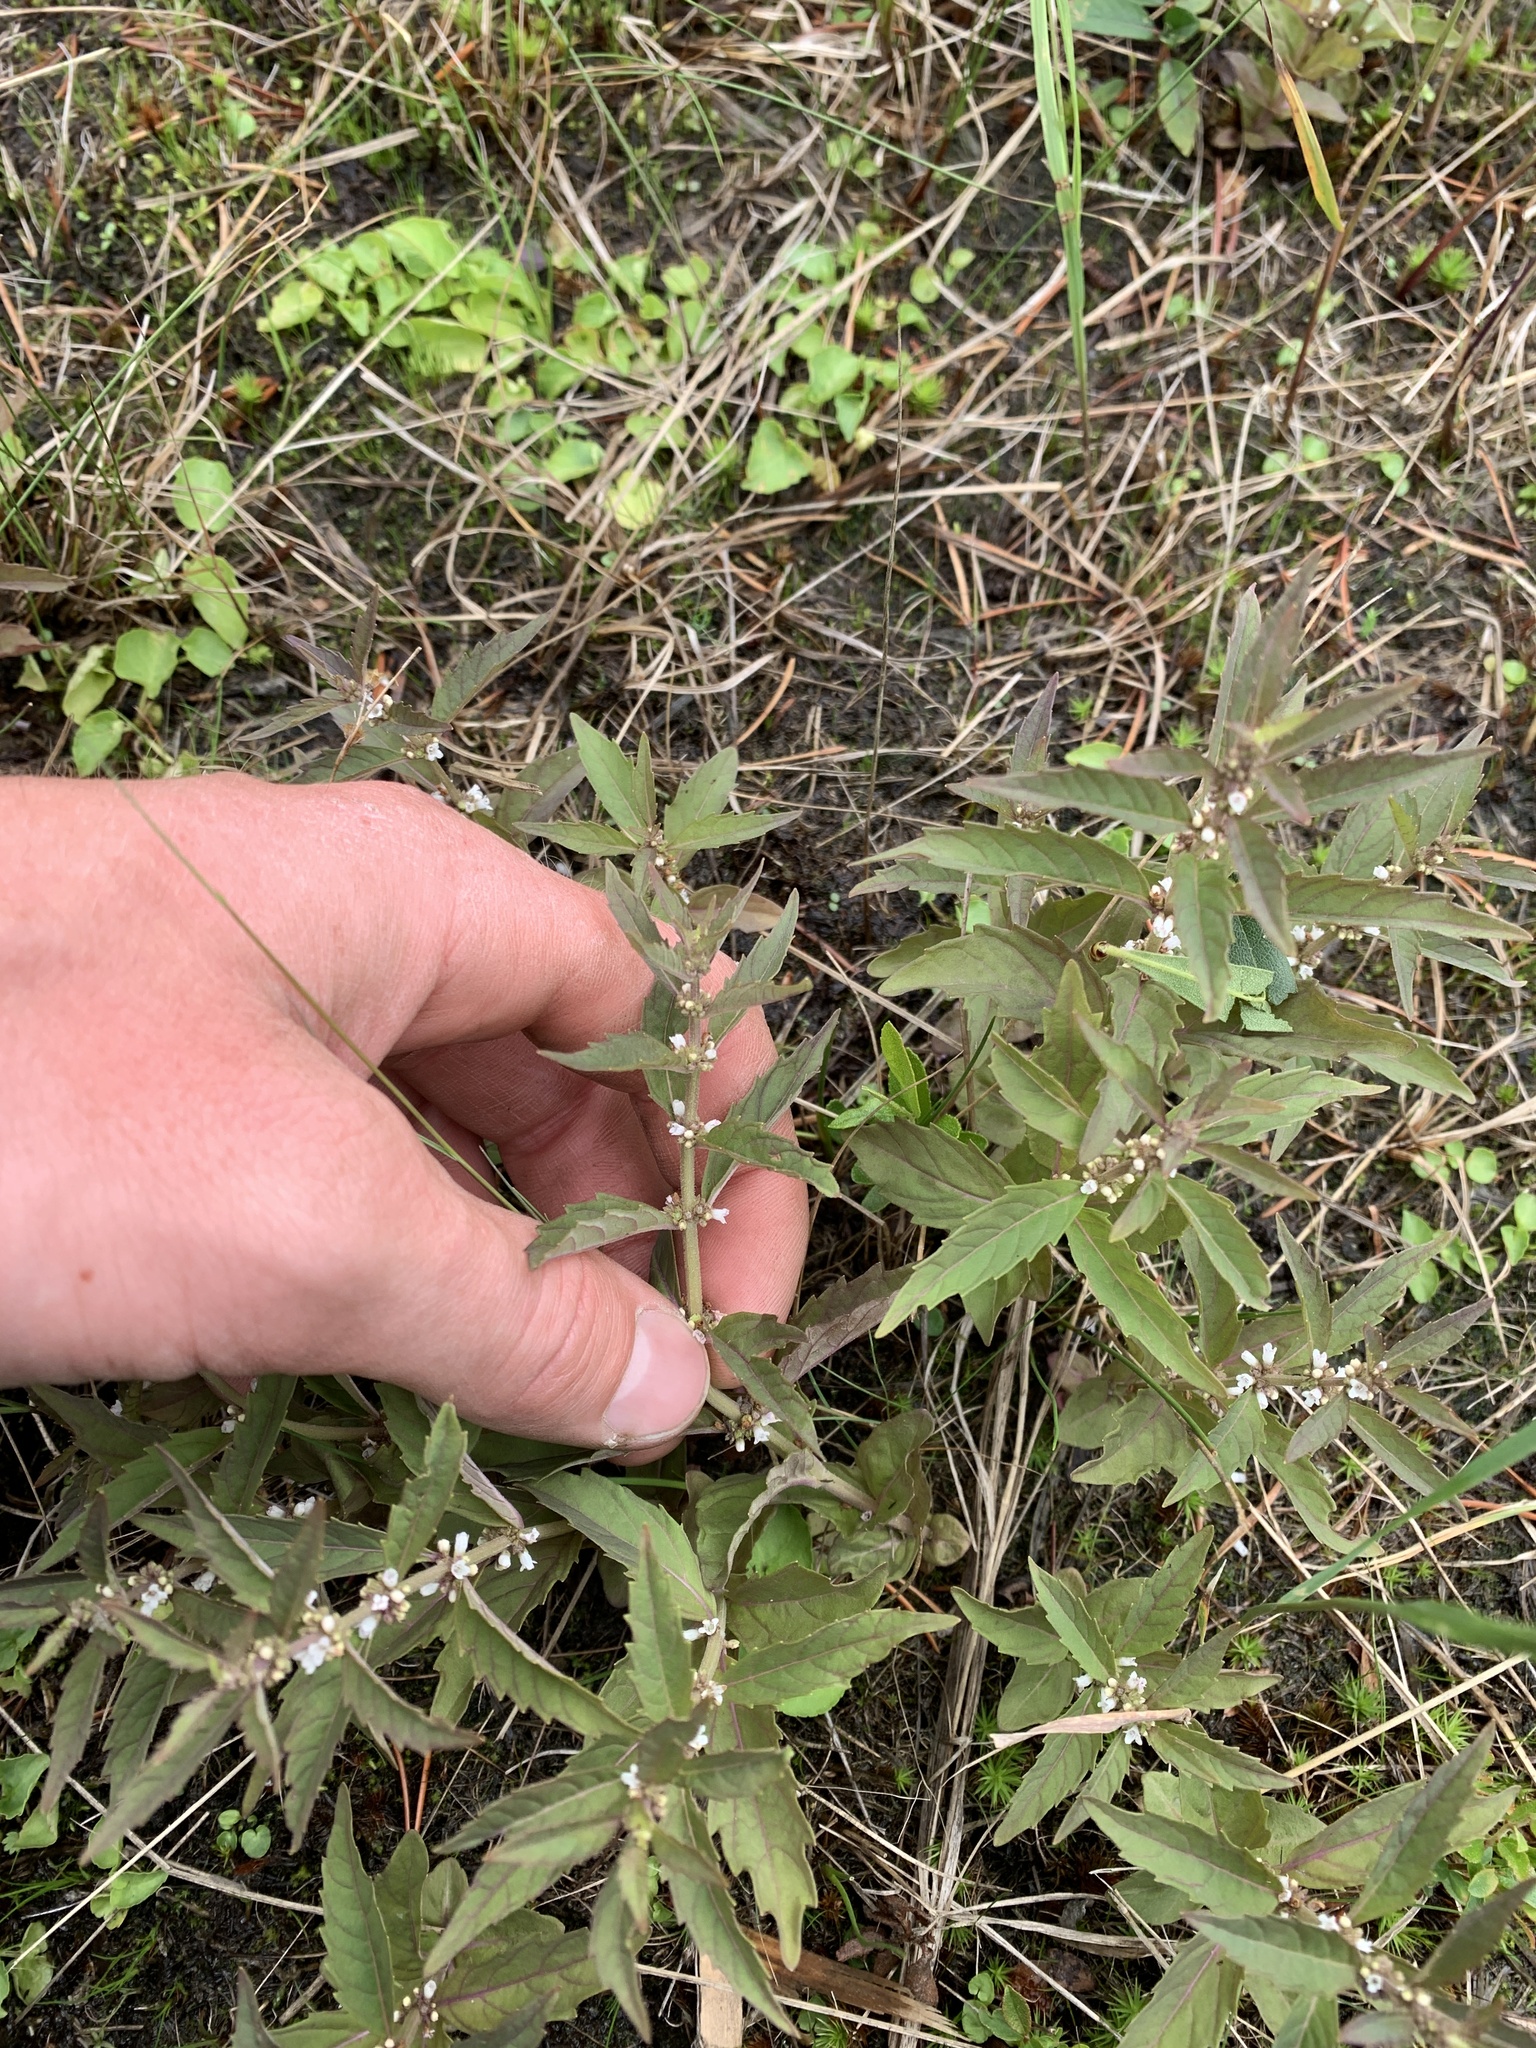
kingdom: Plantae
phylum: Tracheophyta
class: Magnoliopsida
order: Lamiales
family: Lamiaceae
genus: Lycopus
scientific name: Lycopus uniflorus
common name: Northern bugleweed
